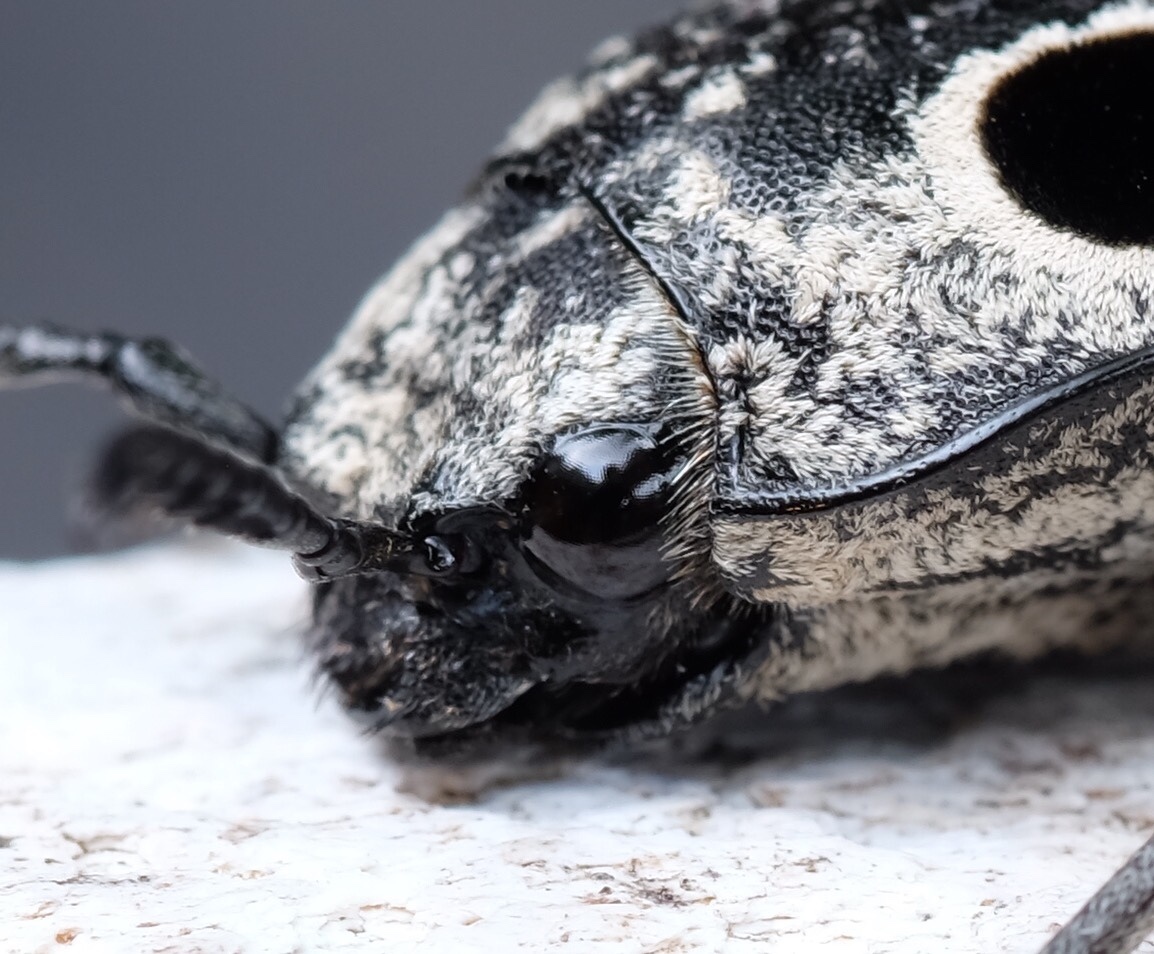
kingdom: Animalia
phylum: Arthropoda
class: Insecta
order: Coleoptera
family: Elateridae
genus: Alaus
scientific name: Alaus
